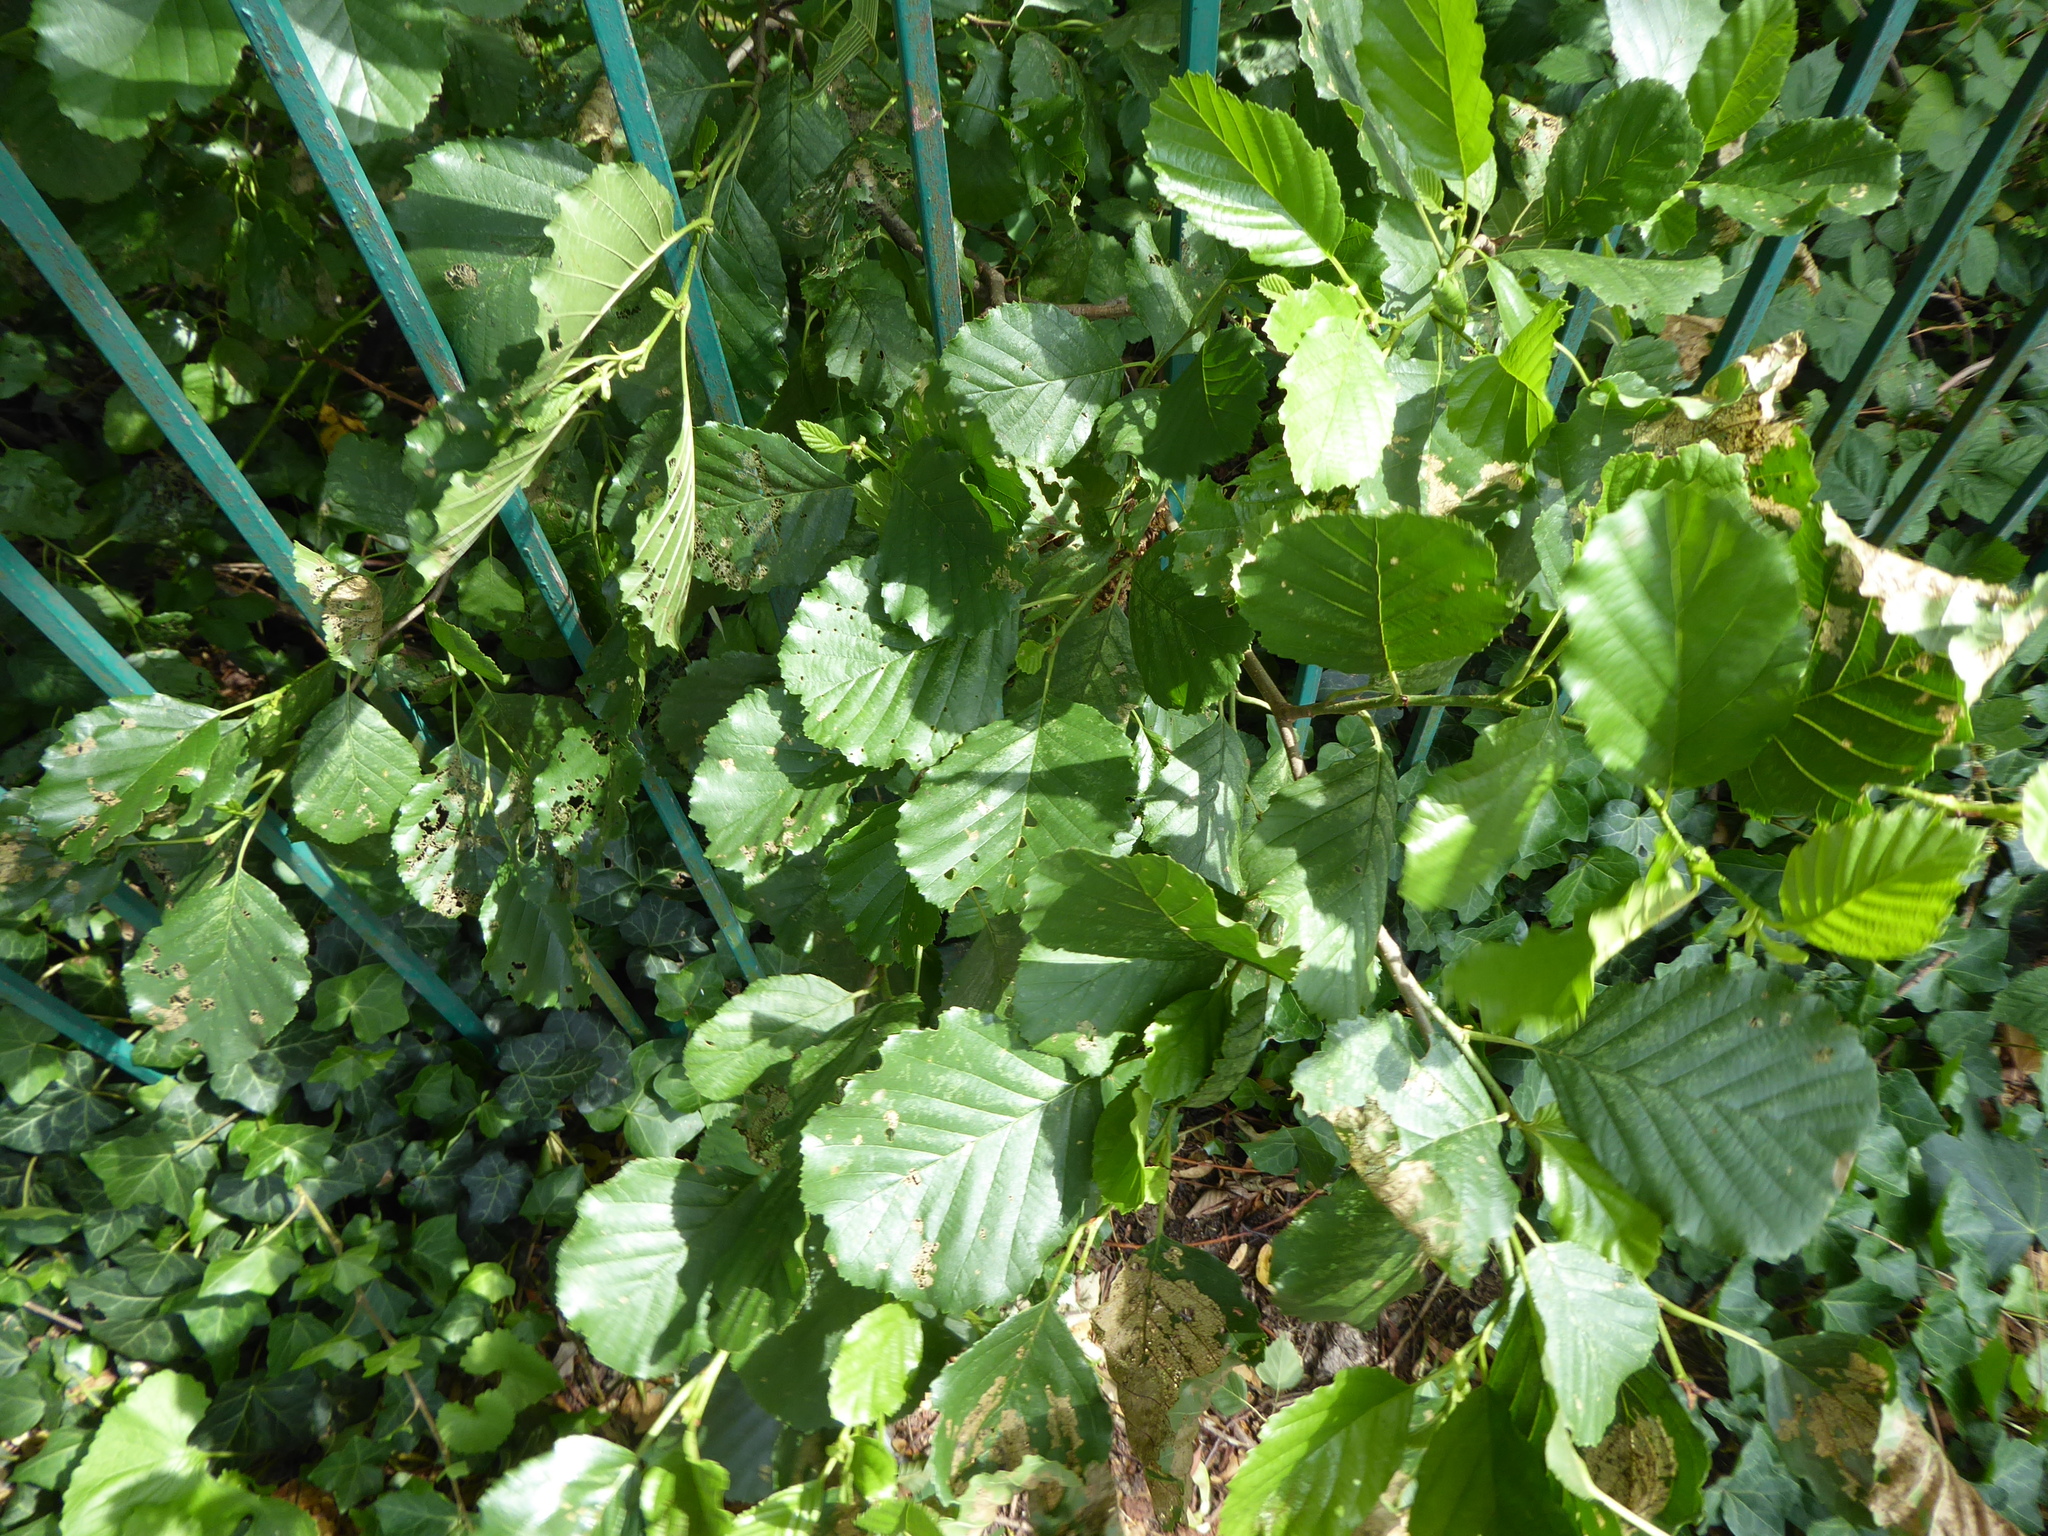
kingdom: Plantae
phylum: Tracheophyta
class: Magnoliopsida
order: Fagales
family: Betulaceae
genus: Alnus
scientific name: Alnus glutinosa
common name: Black alder
